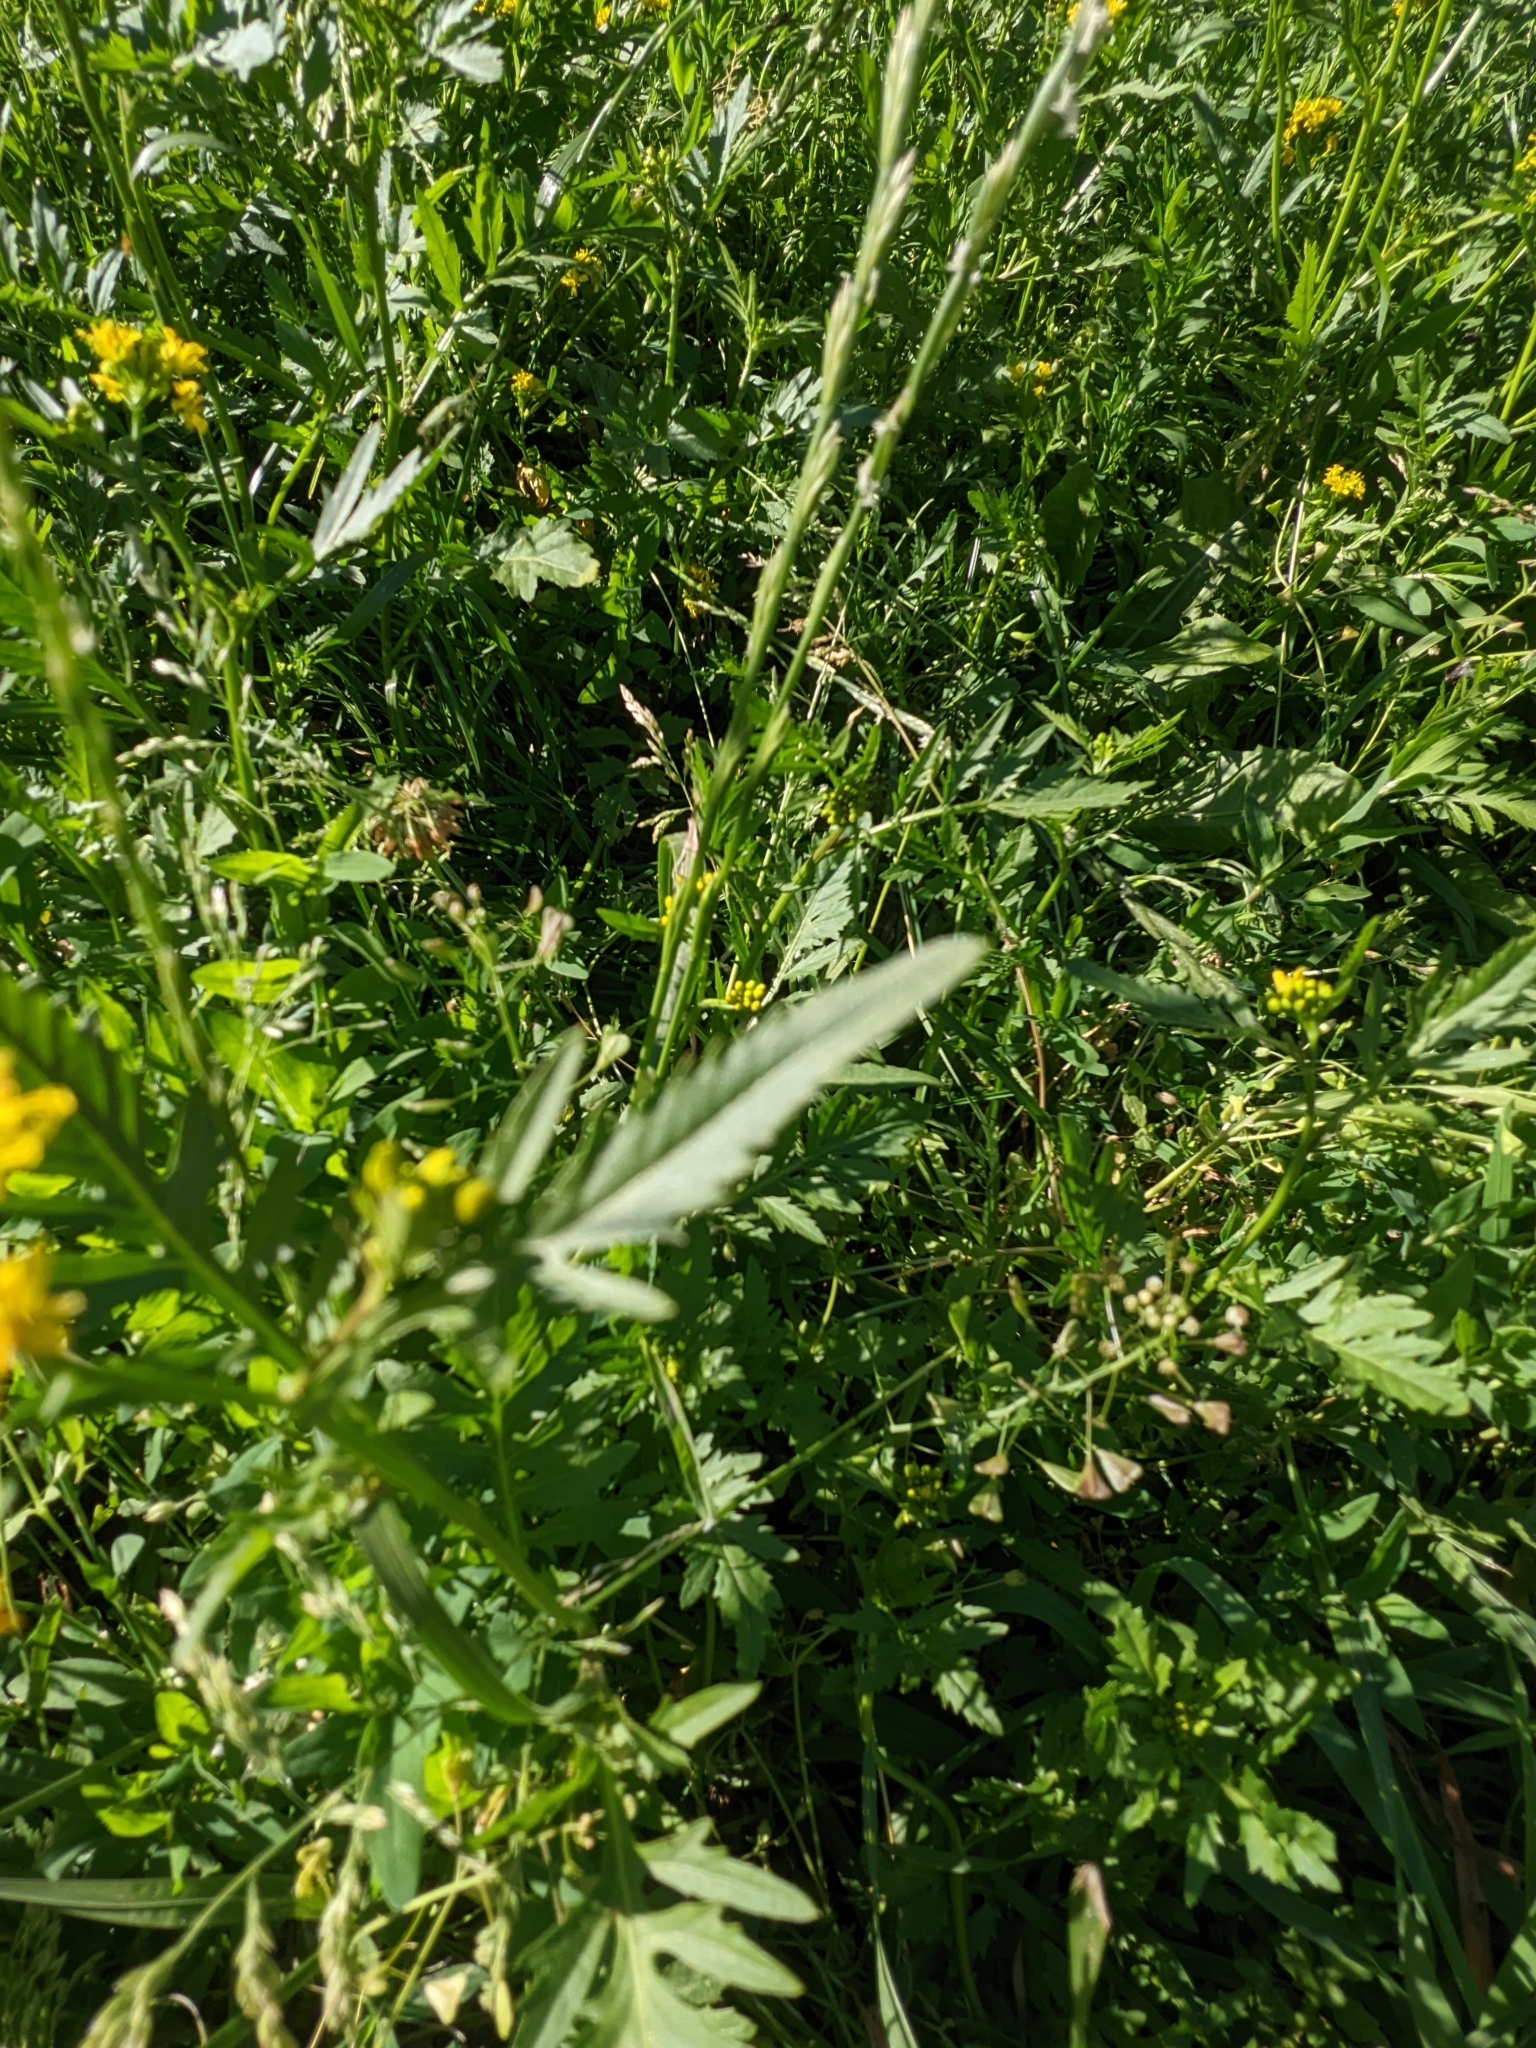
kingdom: Plantae
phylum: Tracheophyta
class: Magnoliopsida
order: Brassicales
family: Brassicaceae
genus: Rorippa
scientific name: Rorippa sylvestris
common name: Creeping yellowcress
